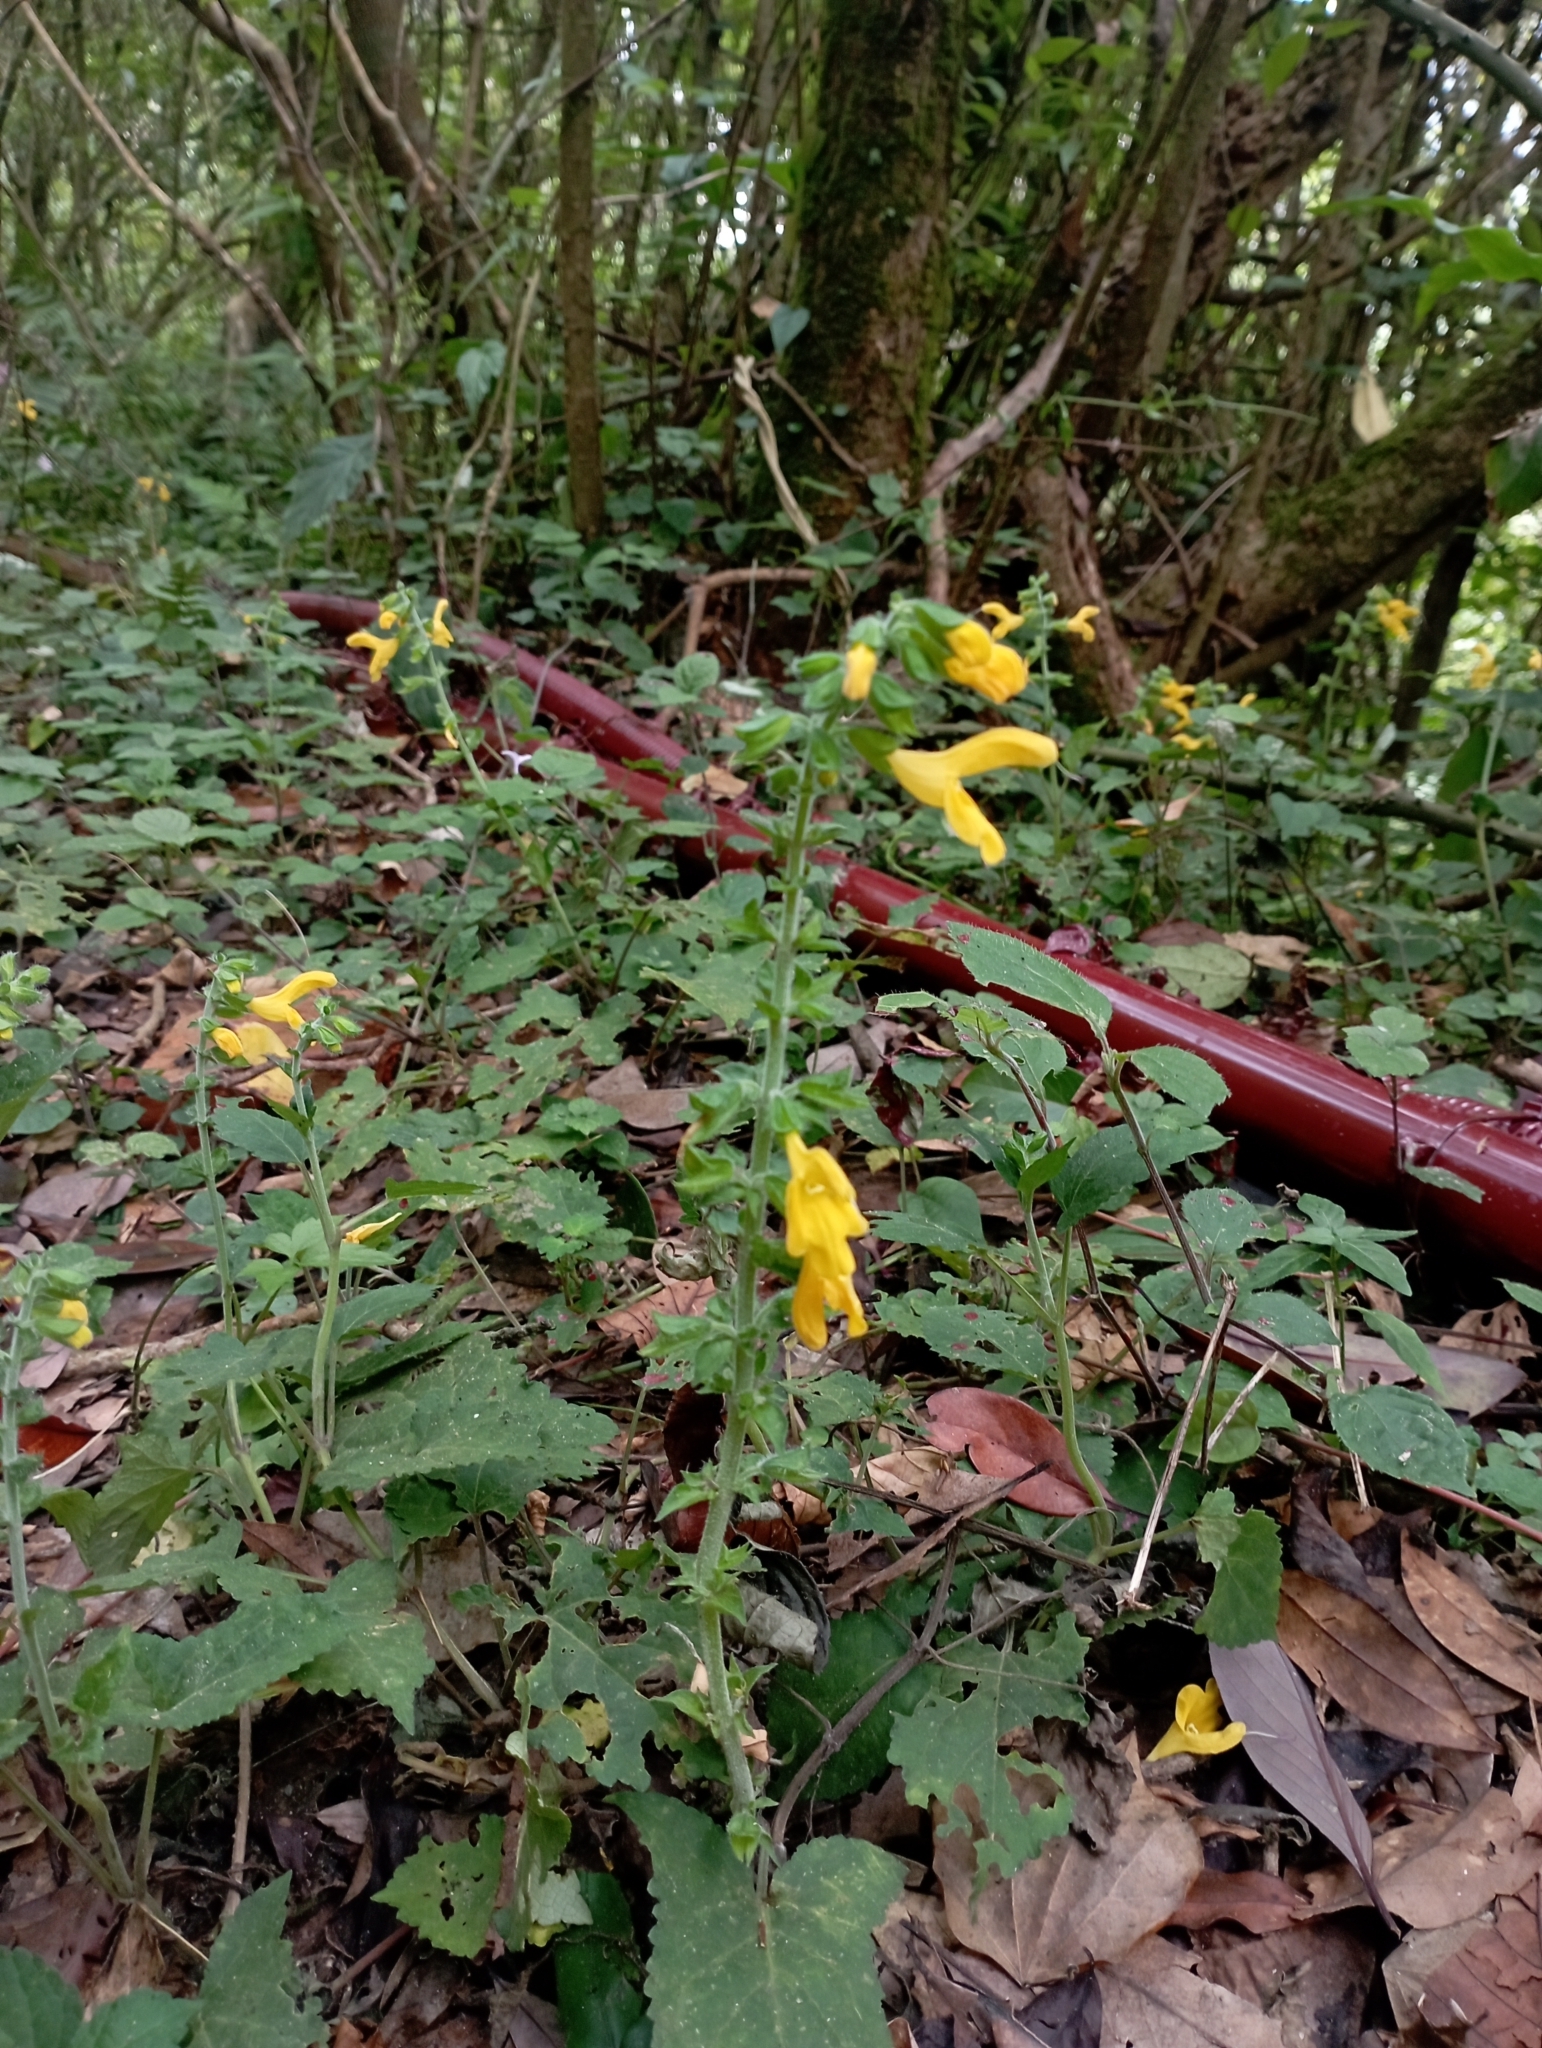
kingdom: Plantae
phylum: Tracheophyta
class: Magnoliopsida
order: Lamiales
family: Lamiaceae
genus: Salvia
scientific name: Salvia nipponica
